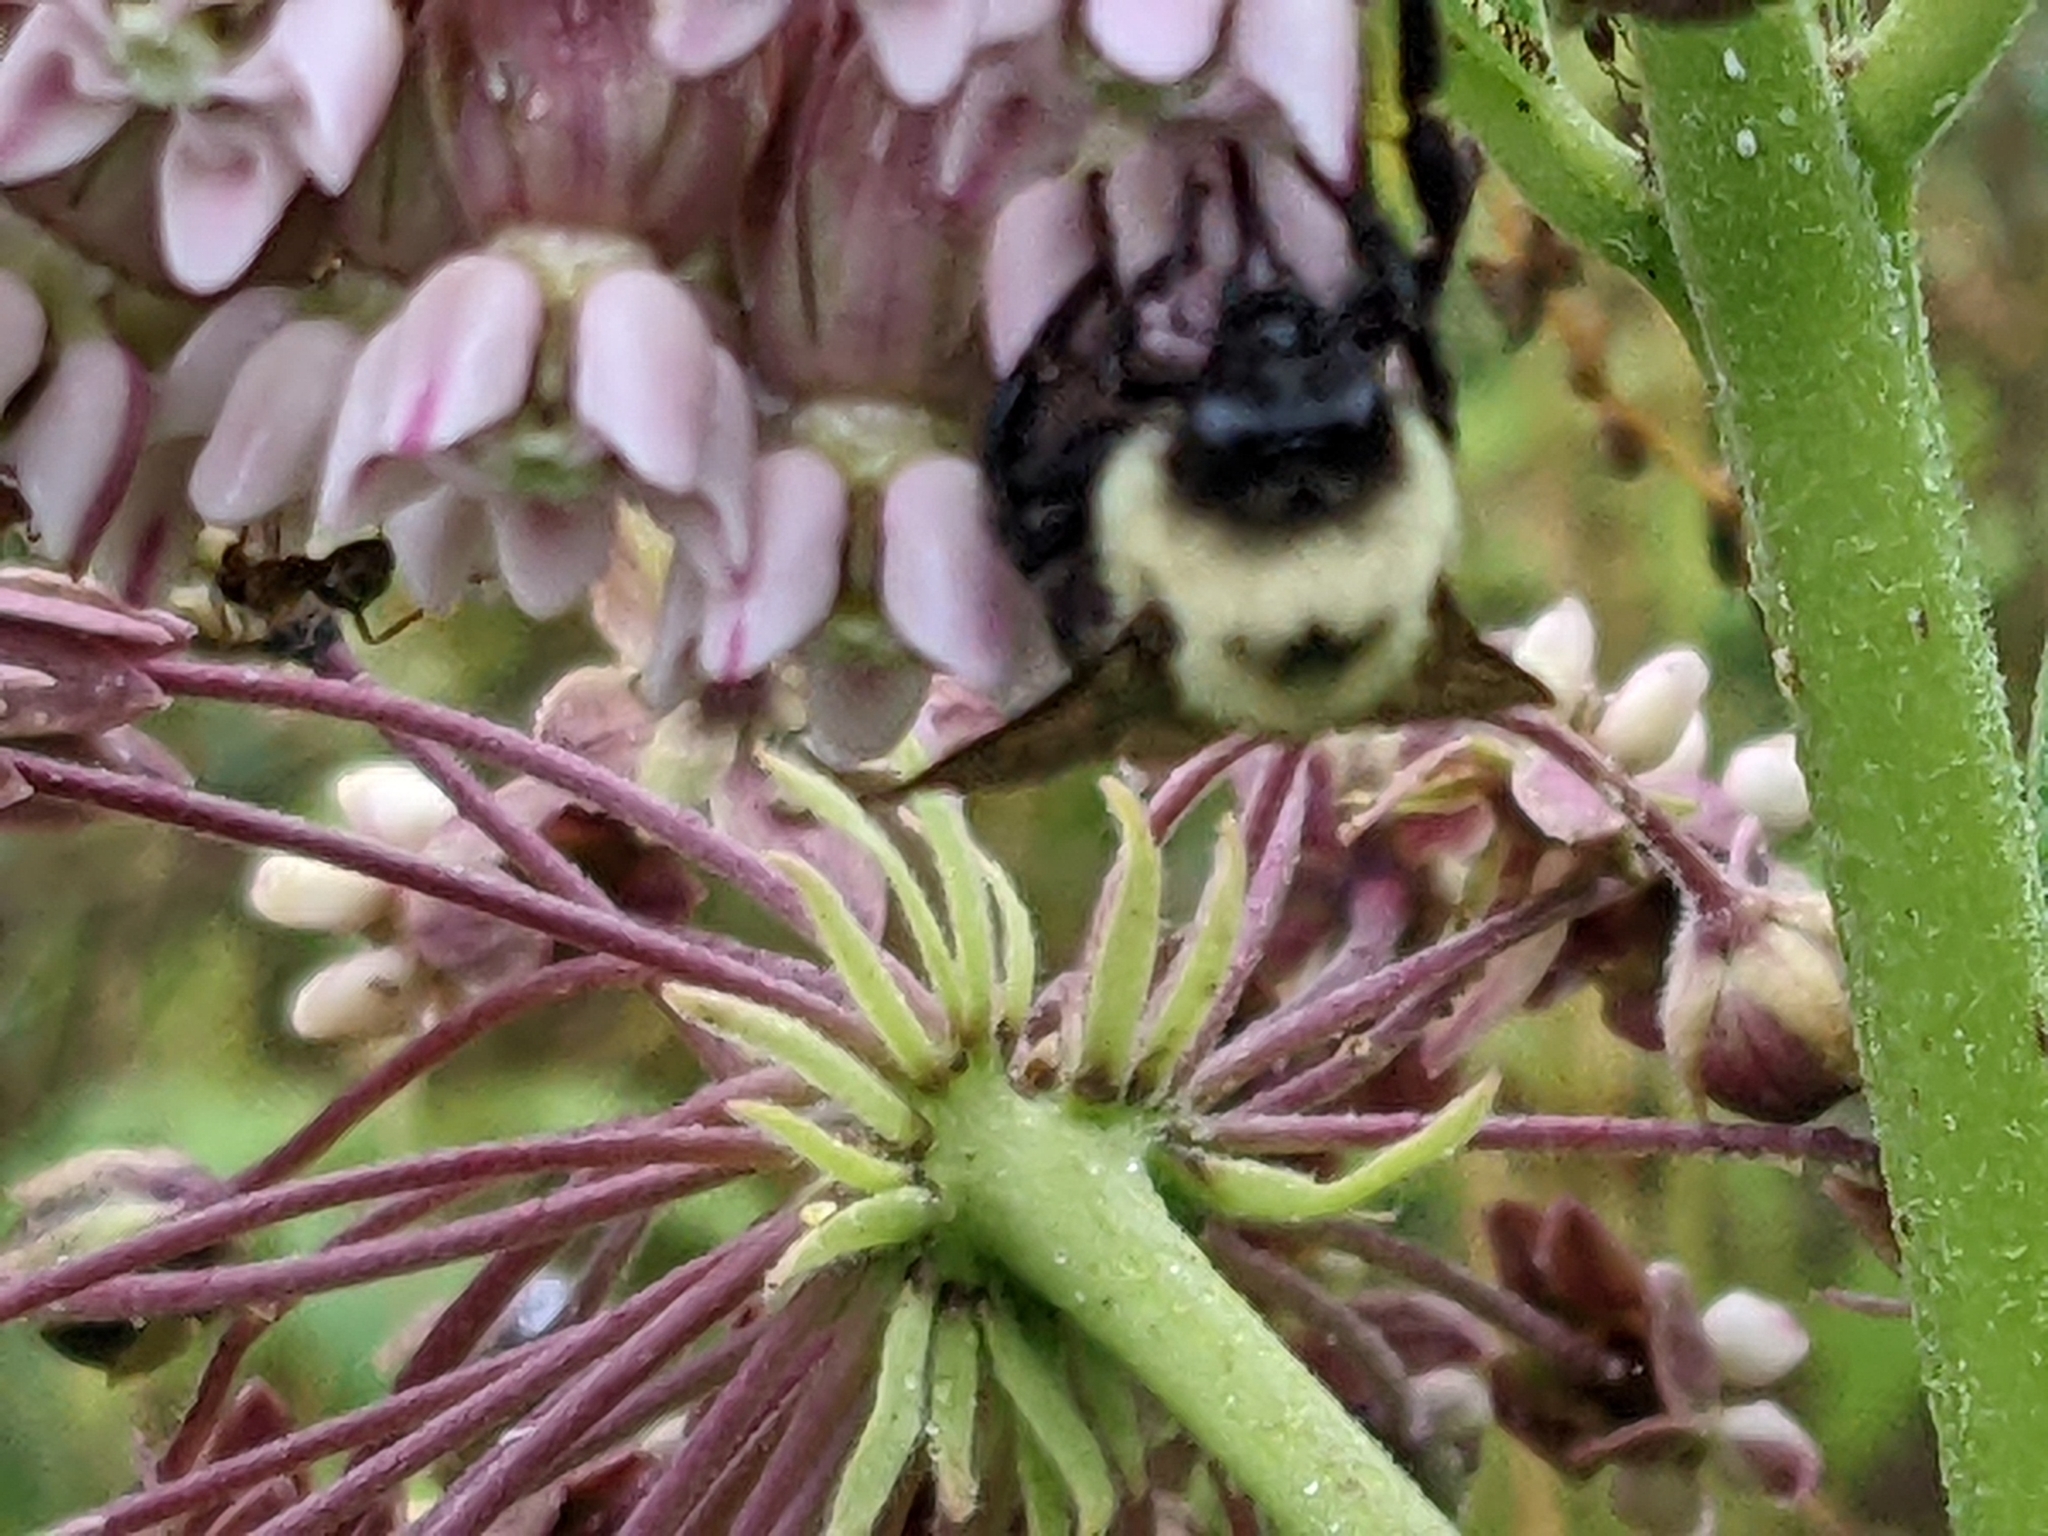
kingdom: Animalia
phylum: Arthropoda
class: Insecta
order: Hymenoptera
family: Apidae
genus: Bombus
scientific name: Bombus griseocollis
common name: Brown-belted bumble bee
